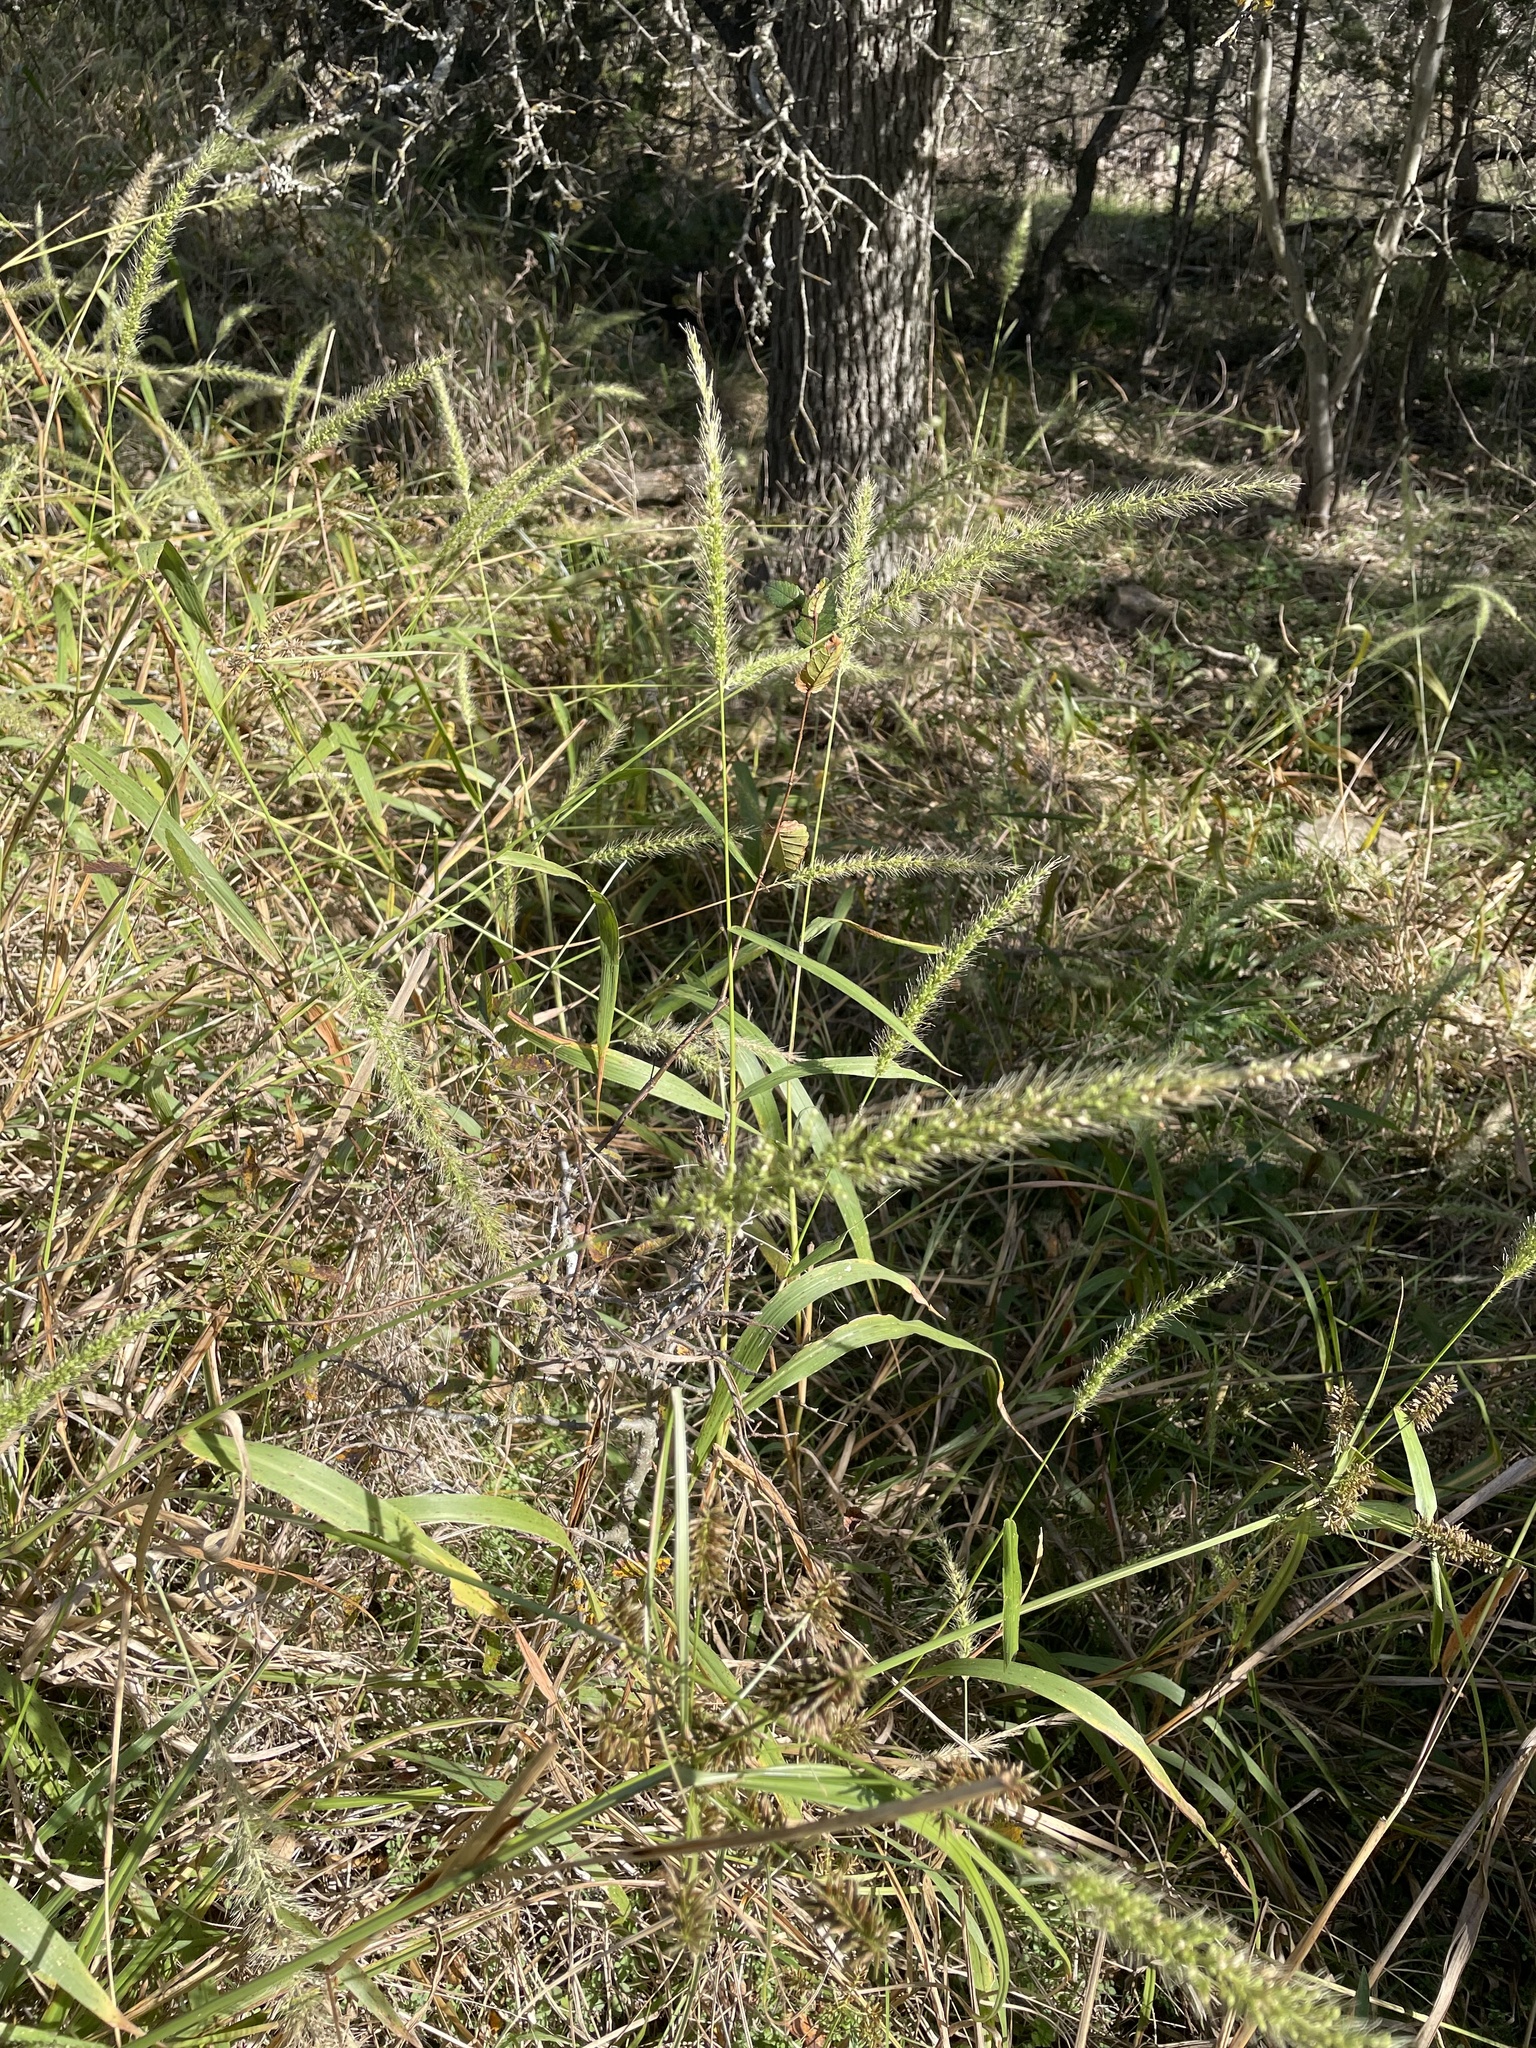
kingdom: Plantae
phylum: Tracheophyta
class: Liliopsida
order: Poales
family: Poaceae
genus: Setaria
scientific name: Setaria scheelei
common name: Southwestern bristle grass
